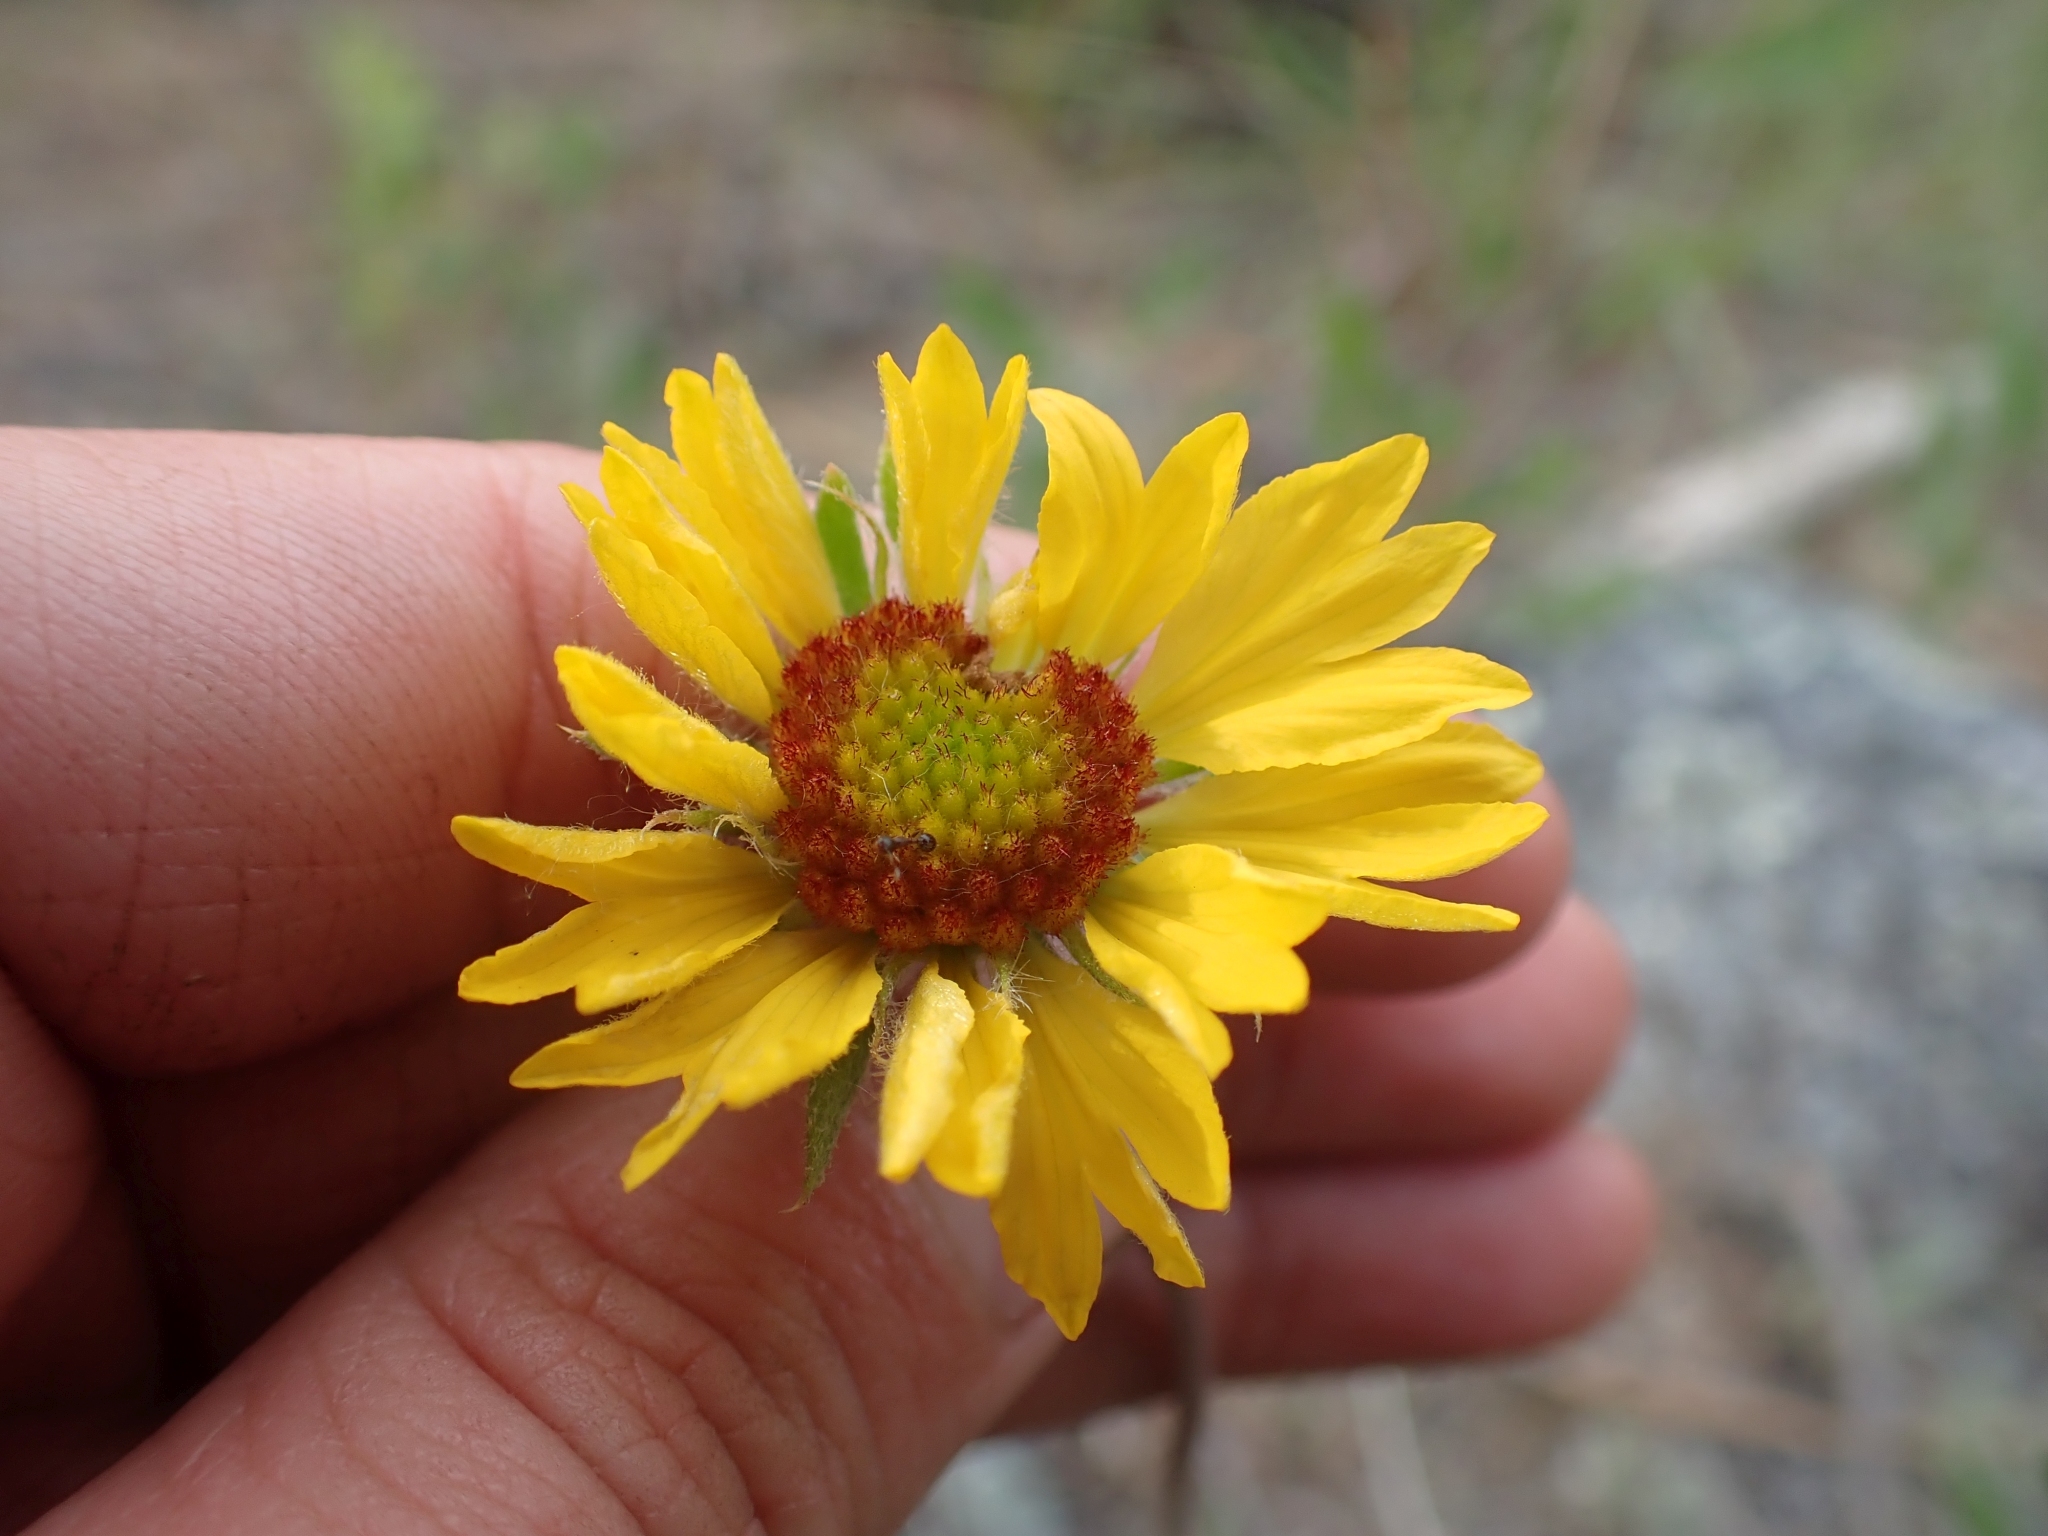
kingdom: Plantae
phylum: Tracheophyta
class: Magnoliopsida
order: Asterales
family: Asteraceae
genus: Gaillardia
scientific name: Gaillardia aristata
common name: Blanket-flower
